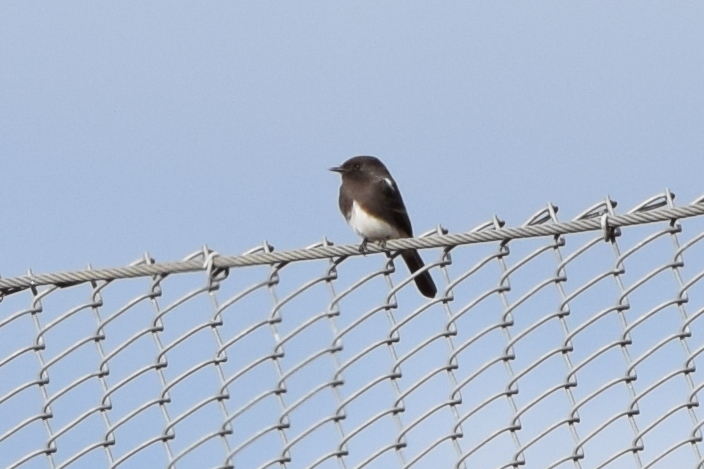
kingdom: Animalia
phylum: Chordata
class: Aves
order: Passeriformes
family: Tyrannidae
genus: Sayornis
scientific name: Sayornis nigricans
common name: Black phoebe
